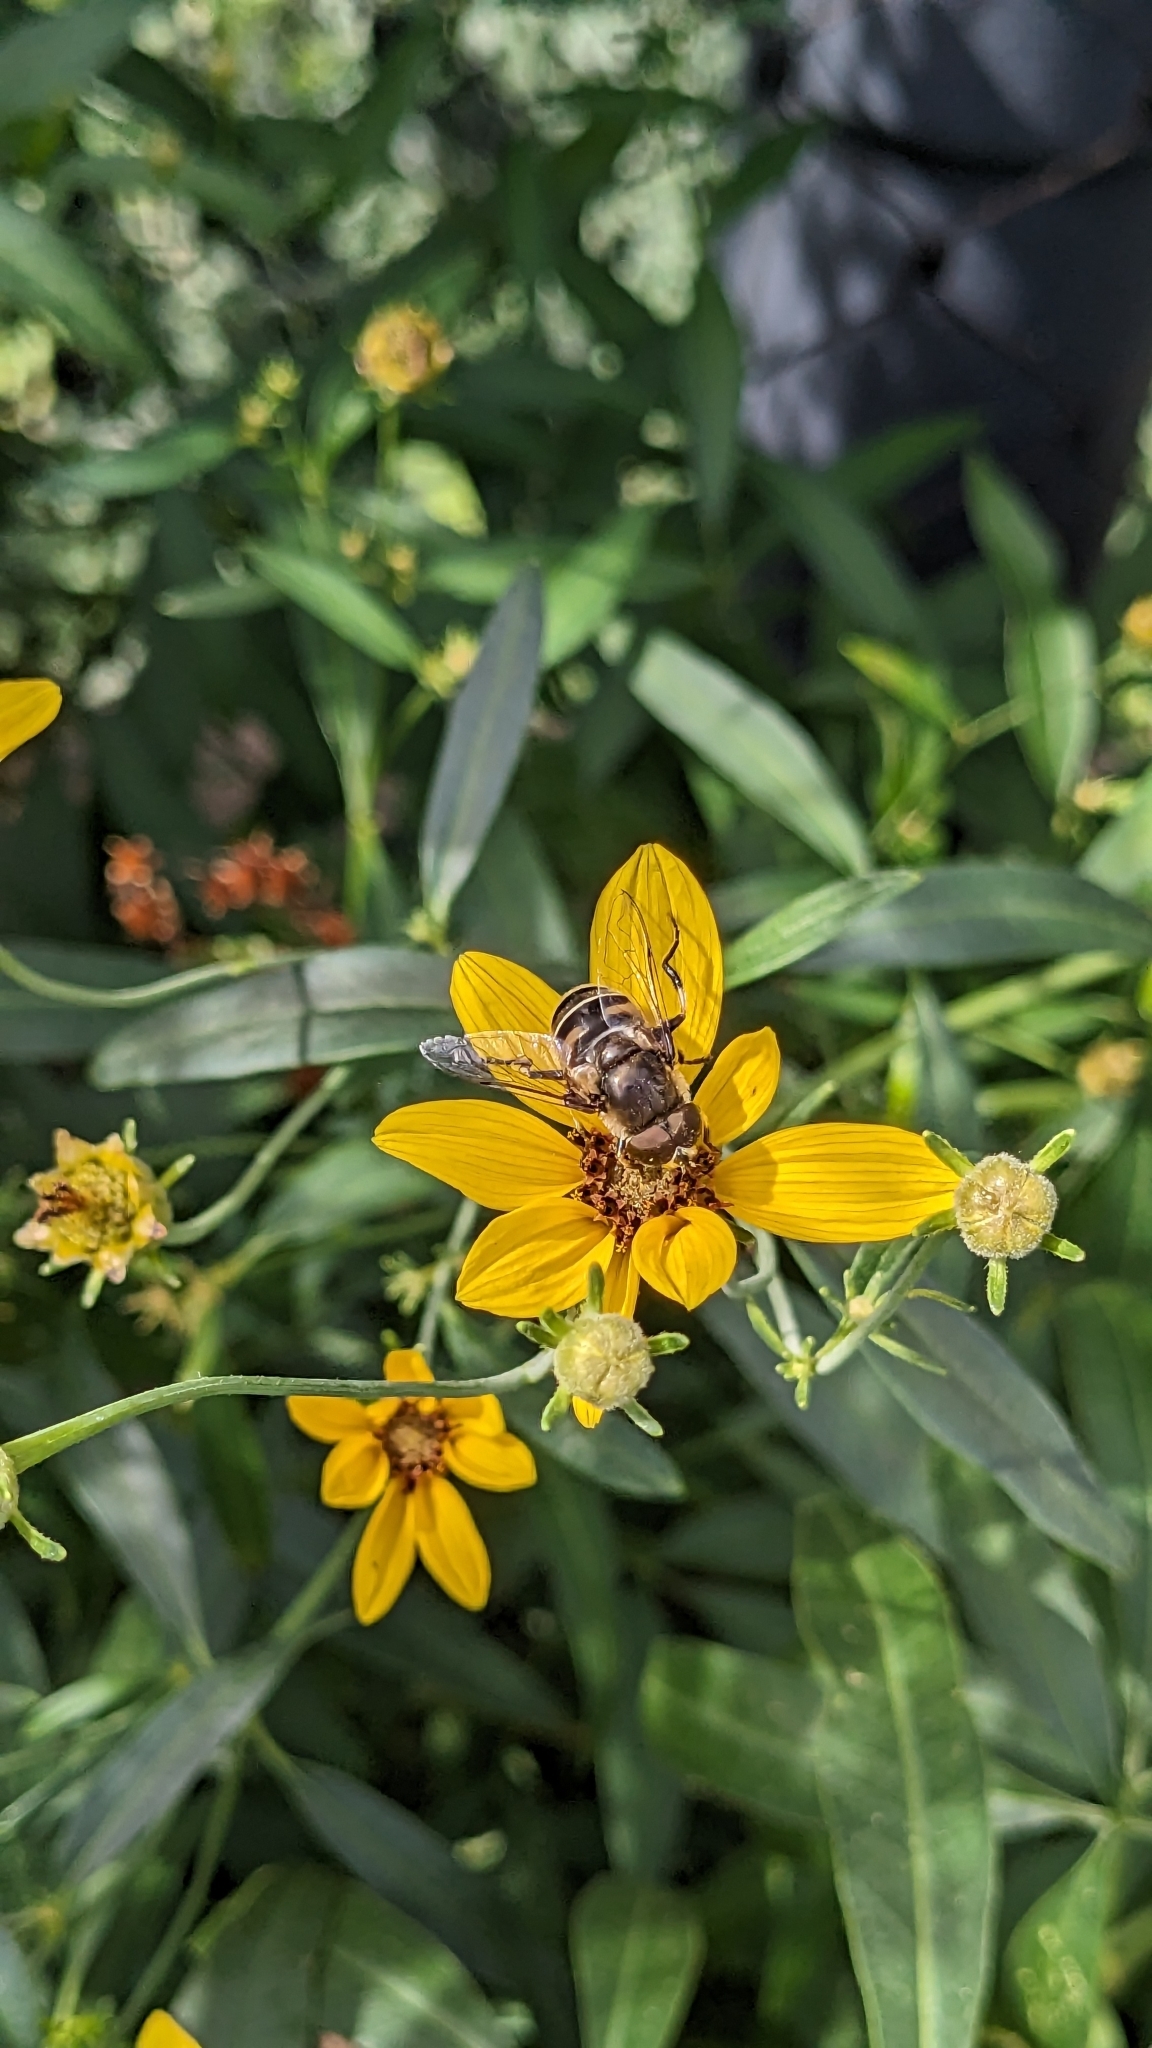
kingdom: Animalia
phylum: Arthropoda
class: Insecta
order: Diptera
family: Syrphidae
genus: Eristalis
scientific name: Eristalis dimidiata
